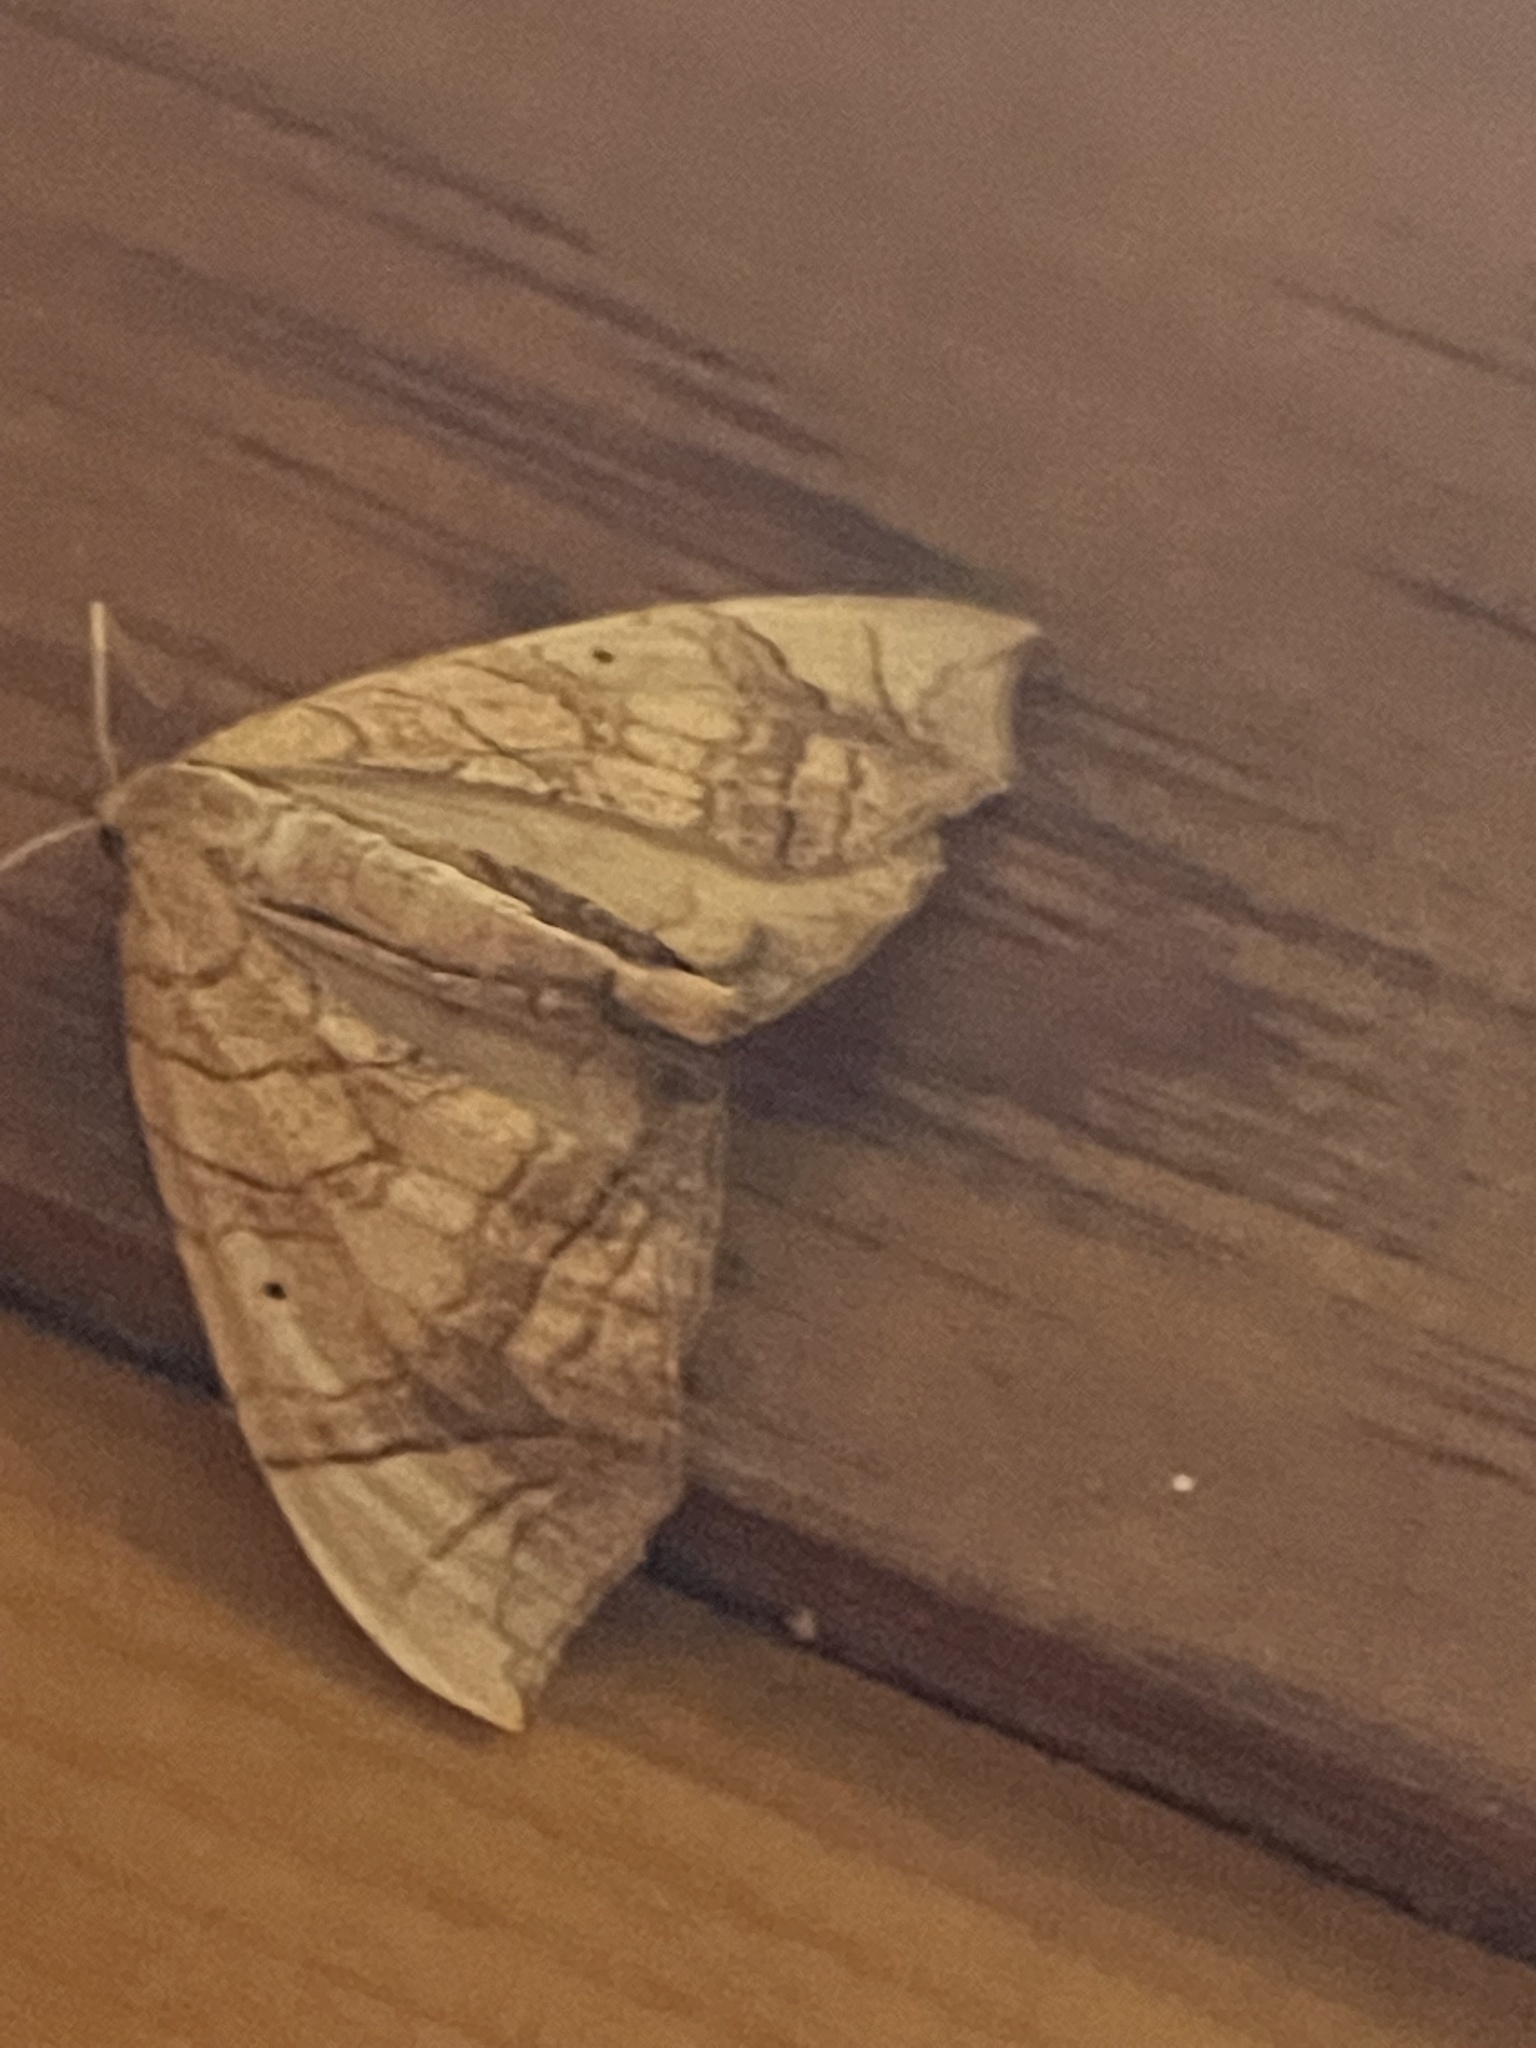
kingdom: Animalia
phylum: Arthropoda
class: Insecta
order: Lepidoptera
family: Geometridae
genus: Eulithis
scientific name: Eulithis
